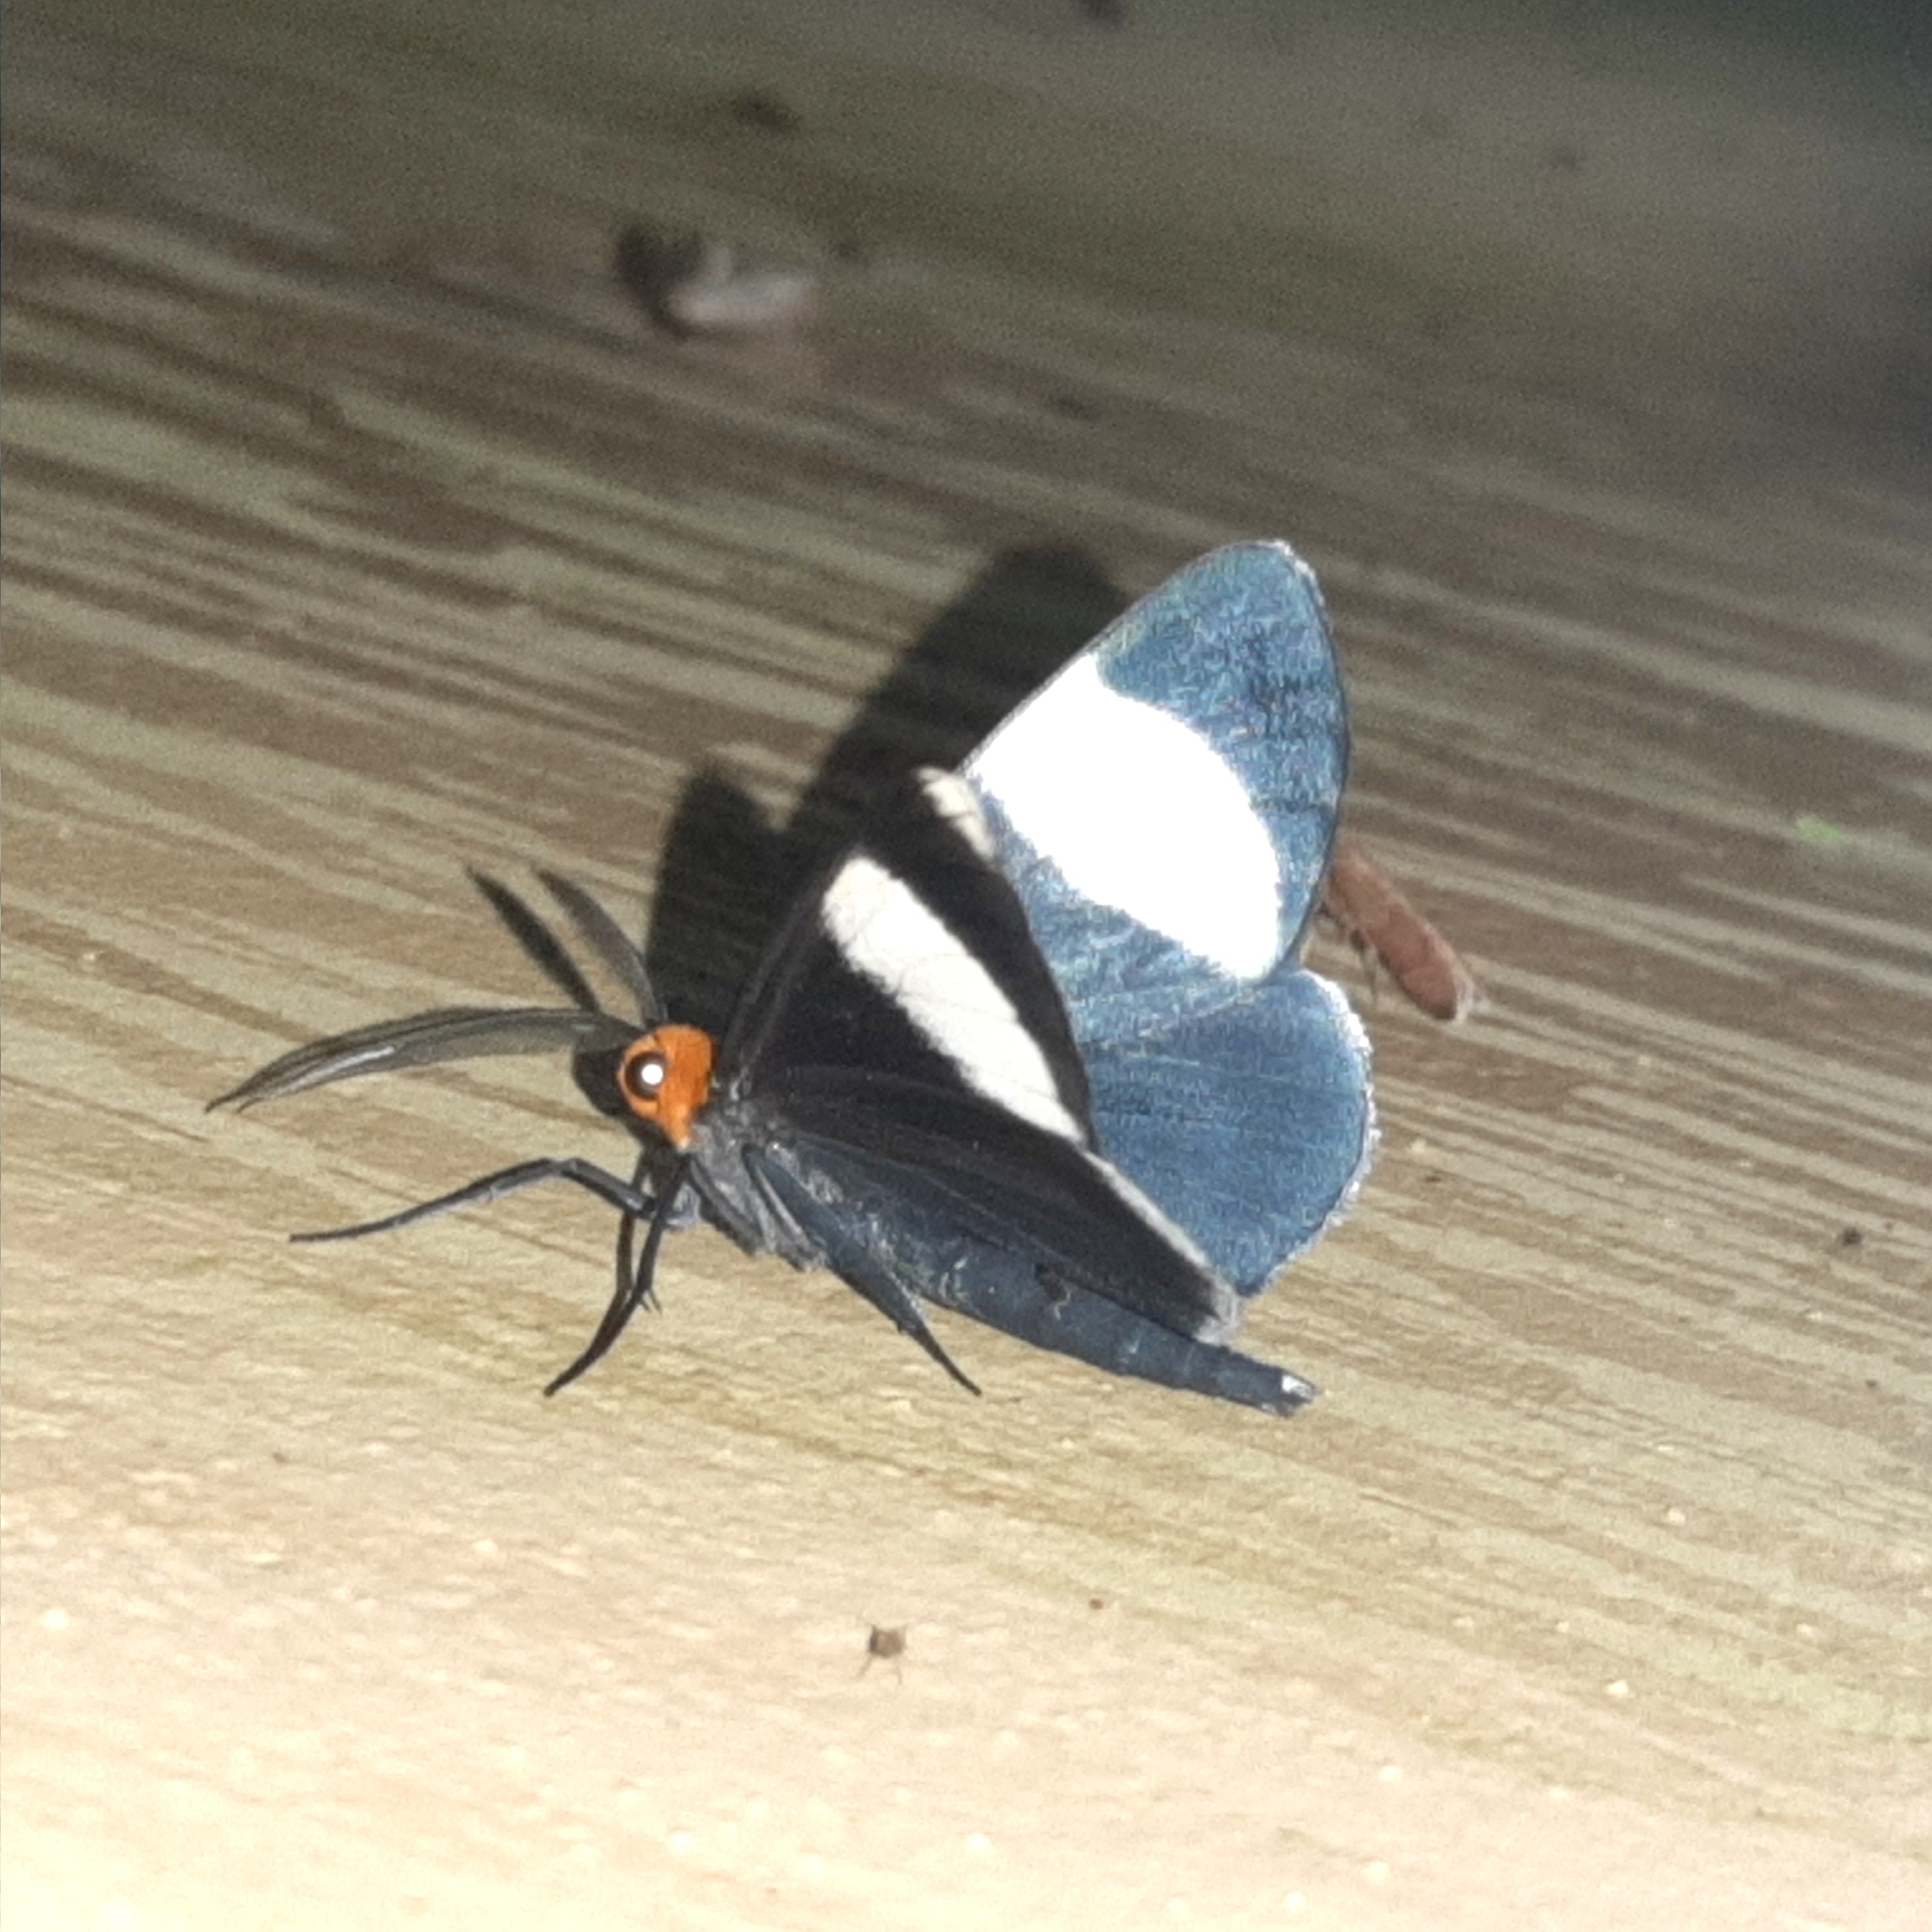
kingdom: Animalia
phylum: Arthropoda
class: Insecta
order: Lepidoptera
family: Geometridae
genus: Simena
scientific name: Simena luctifera
